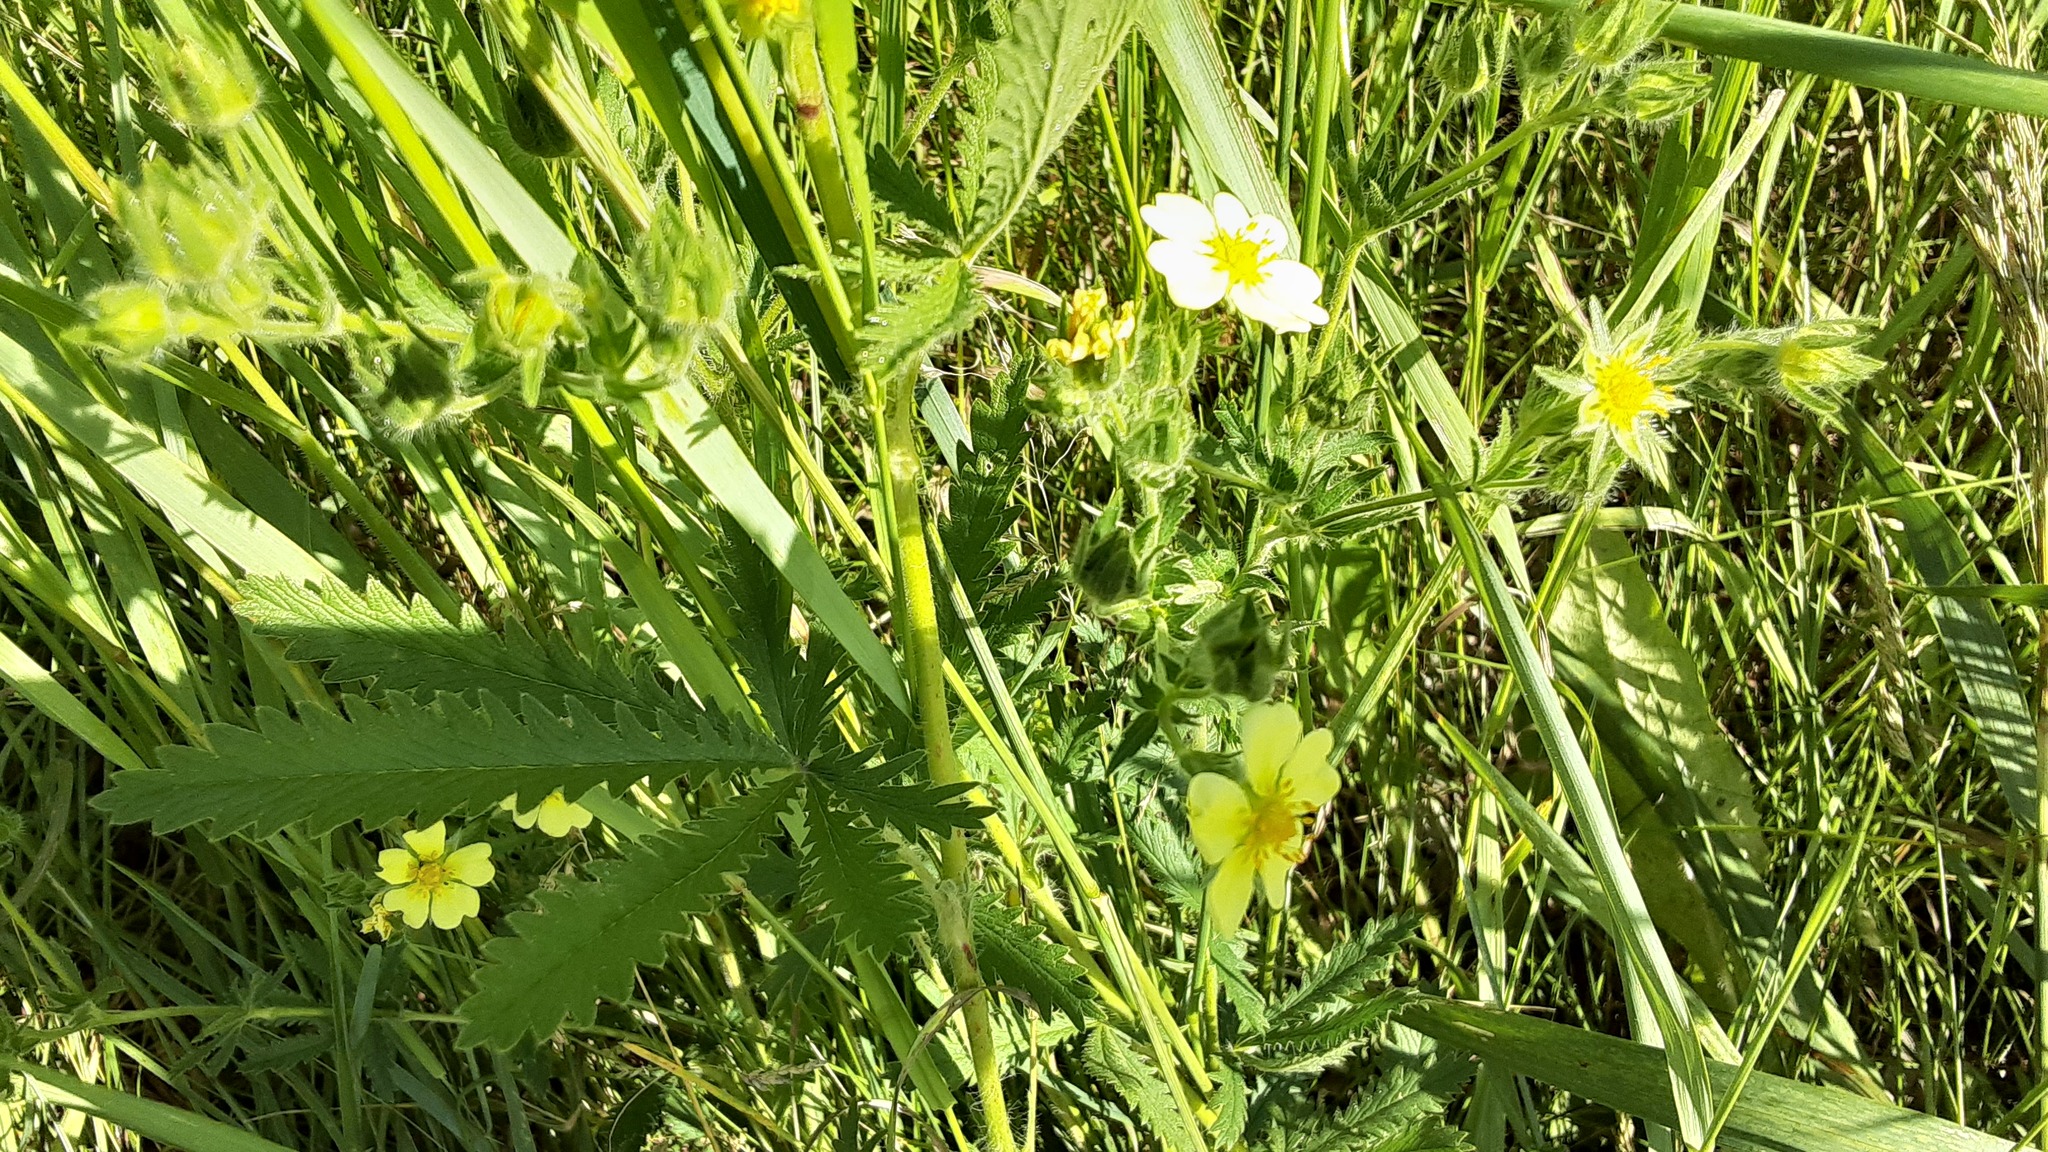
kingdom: Plantae
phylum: Tracheophyta
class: Magnoliopsida
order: Rosales
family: Rosaceae
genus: Potentilla
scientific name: Potentilla recta
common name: Sulphur cinquefoil
